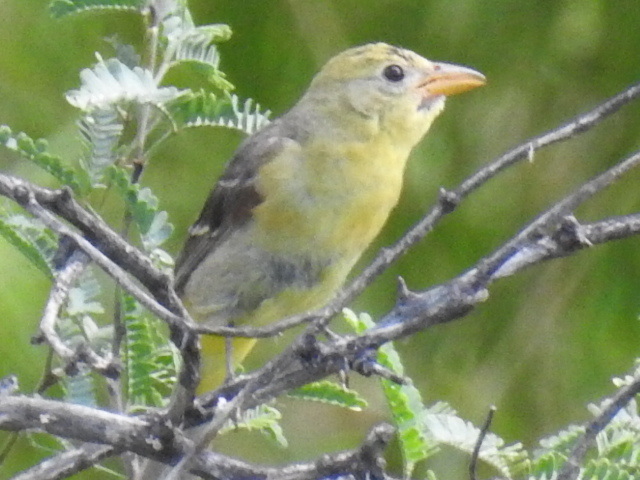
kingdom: Animalia
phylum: Chordata
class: Aves
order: Passeriformes
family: Cardinalidae
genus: Piranga
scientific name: Piranga ludoviciana
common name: Western tanager
